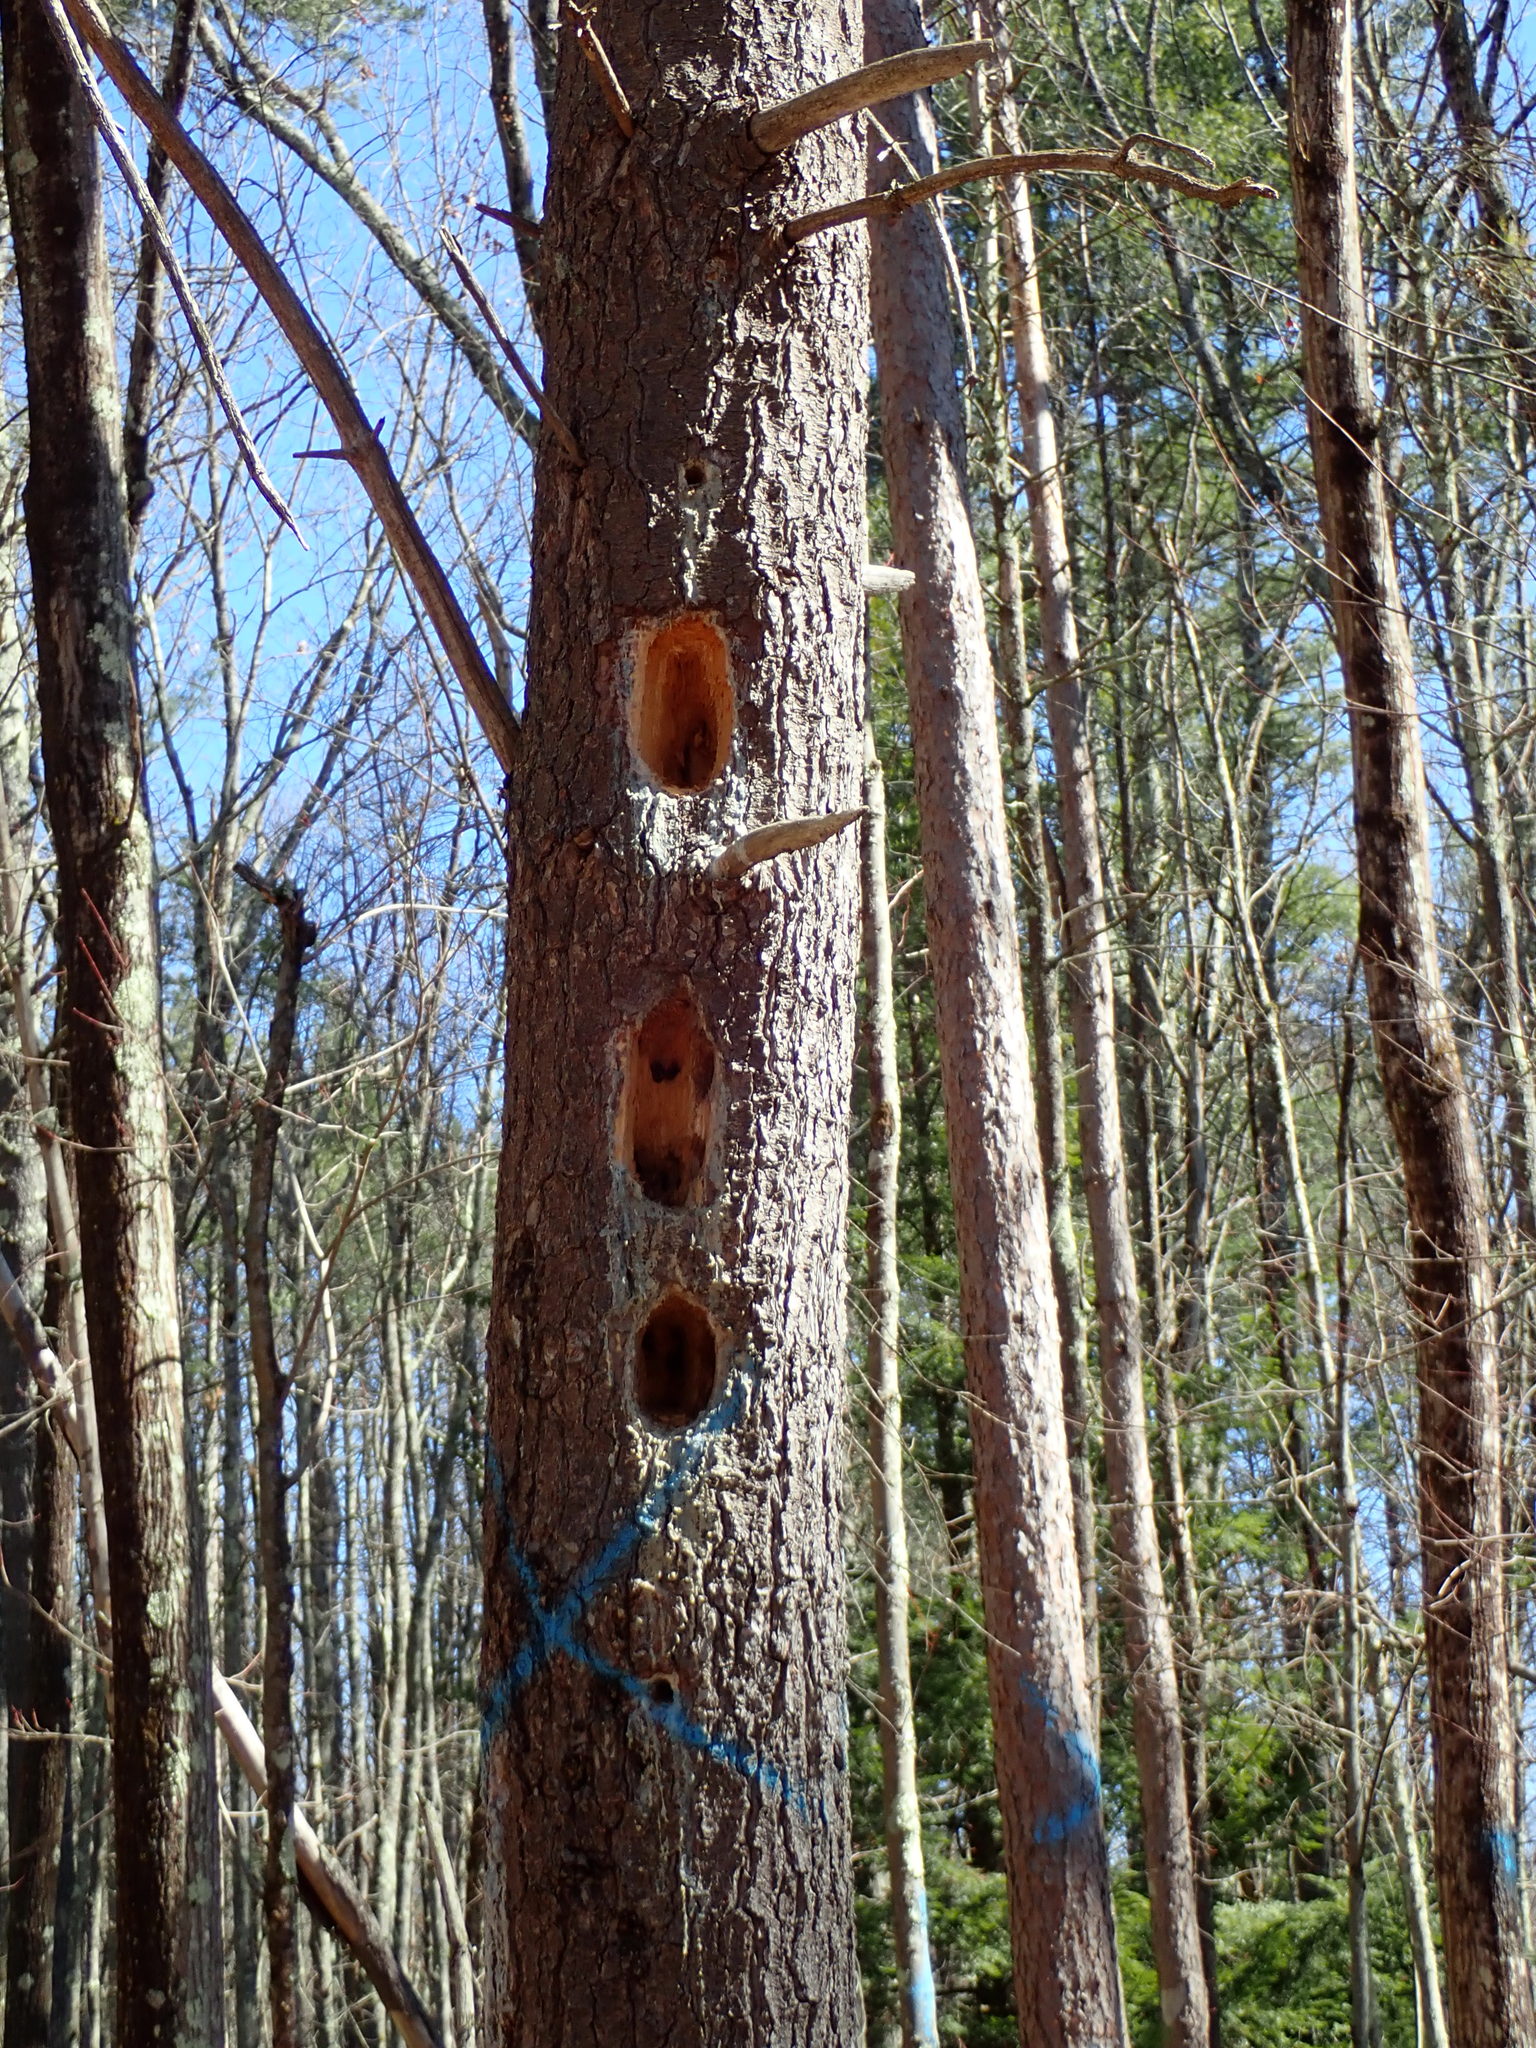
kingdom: Animalia
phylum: Chordata
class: Aves
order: Piciformes
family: Picidae
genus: Dryocopus
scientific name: Dryocopus pileatus
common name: Pileated woodpecker
